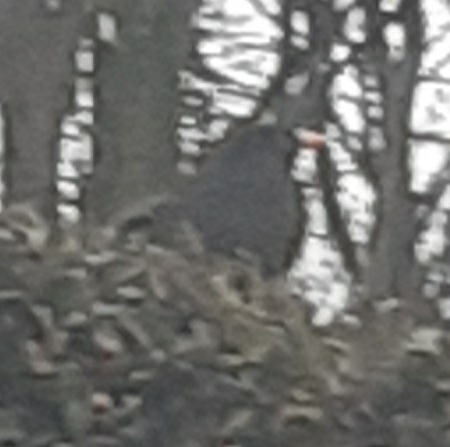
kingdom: Animalia
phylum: Chordata
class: Aves
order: Passeriformes
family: Turdidae
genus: Turdus
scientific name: Turdus merula
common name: Common blackbird
